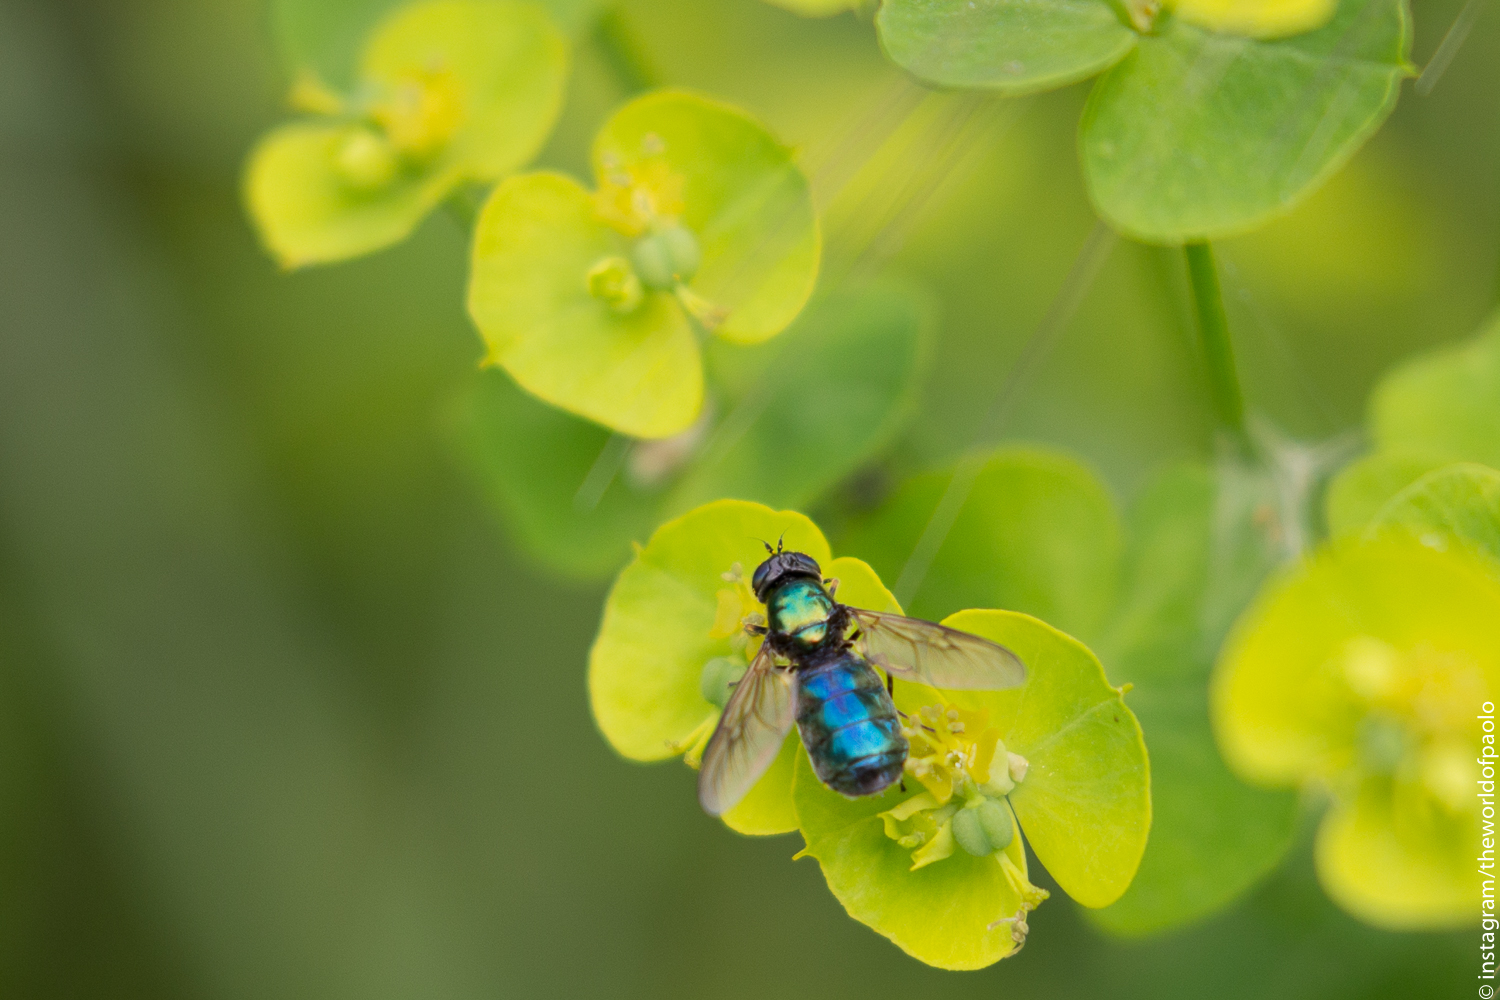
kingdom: Animalia
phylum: Arthropoda
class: Insecta
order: Diptera
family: Stratiomyidae
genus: Chloromyia
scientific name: Chloromyia formosa
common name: Soldier fly
